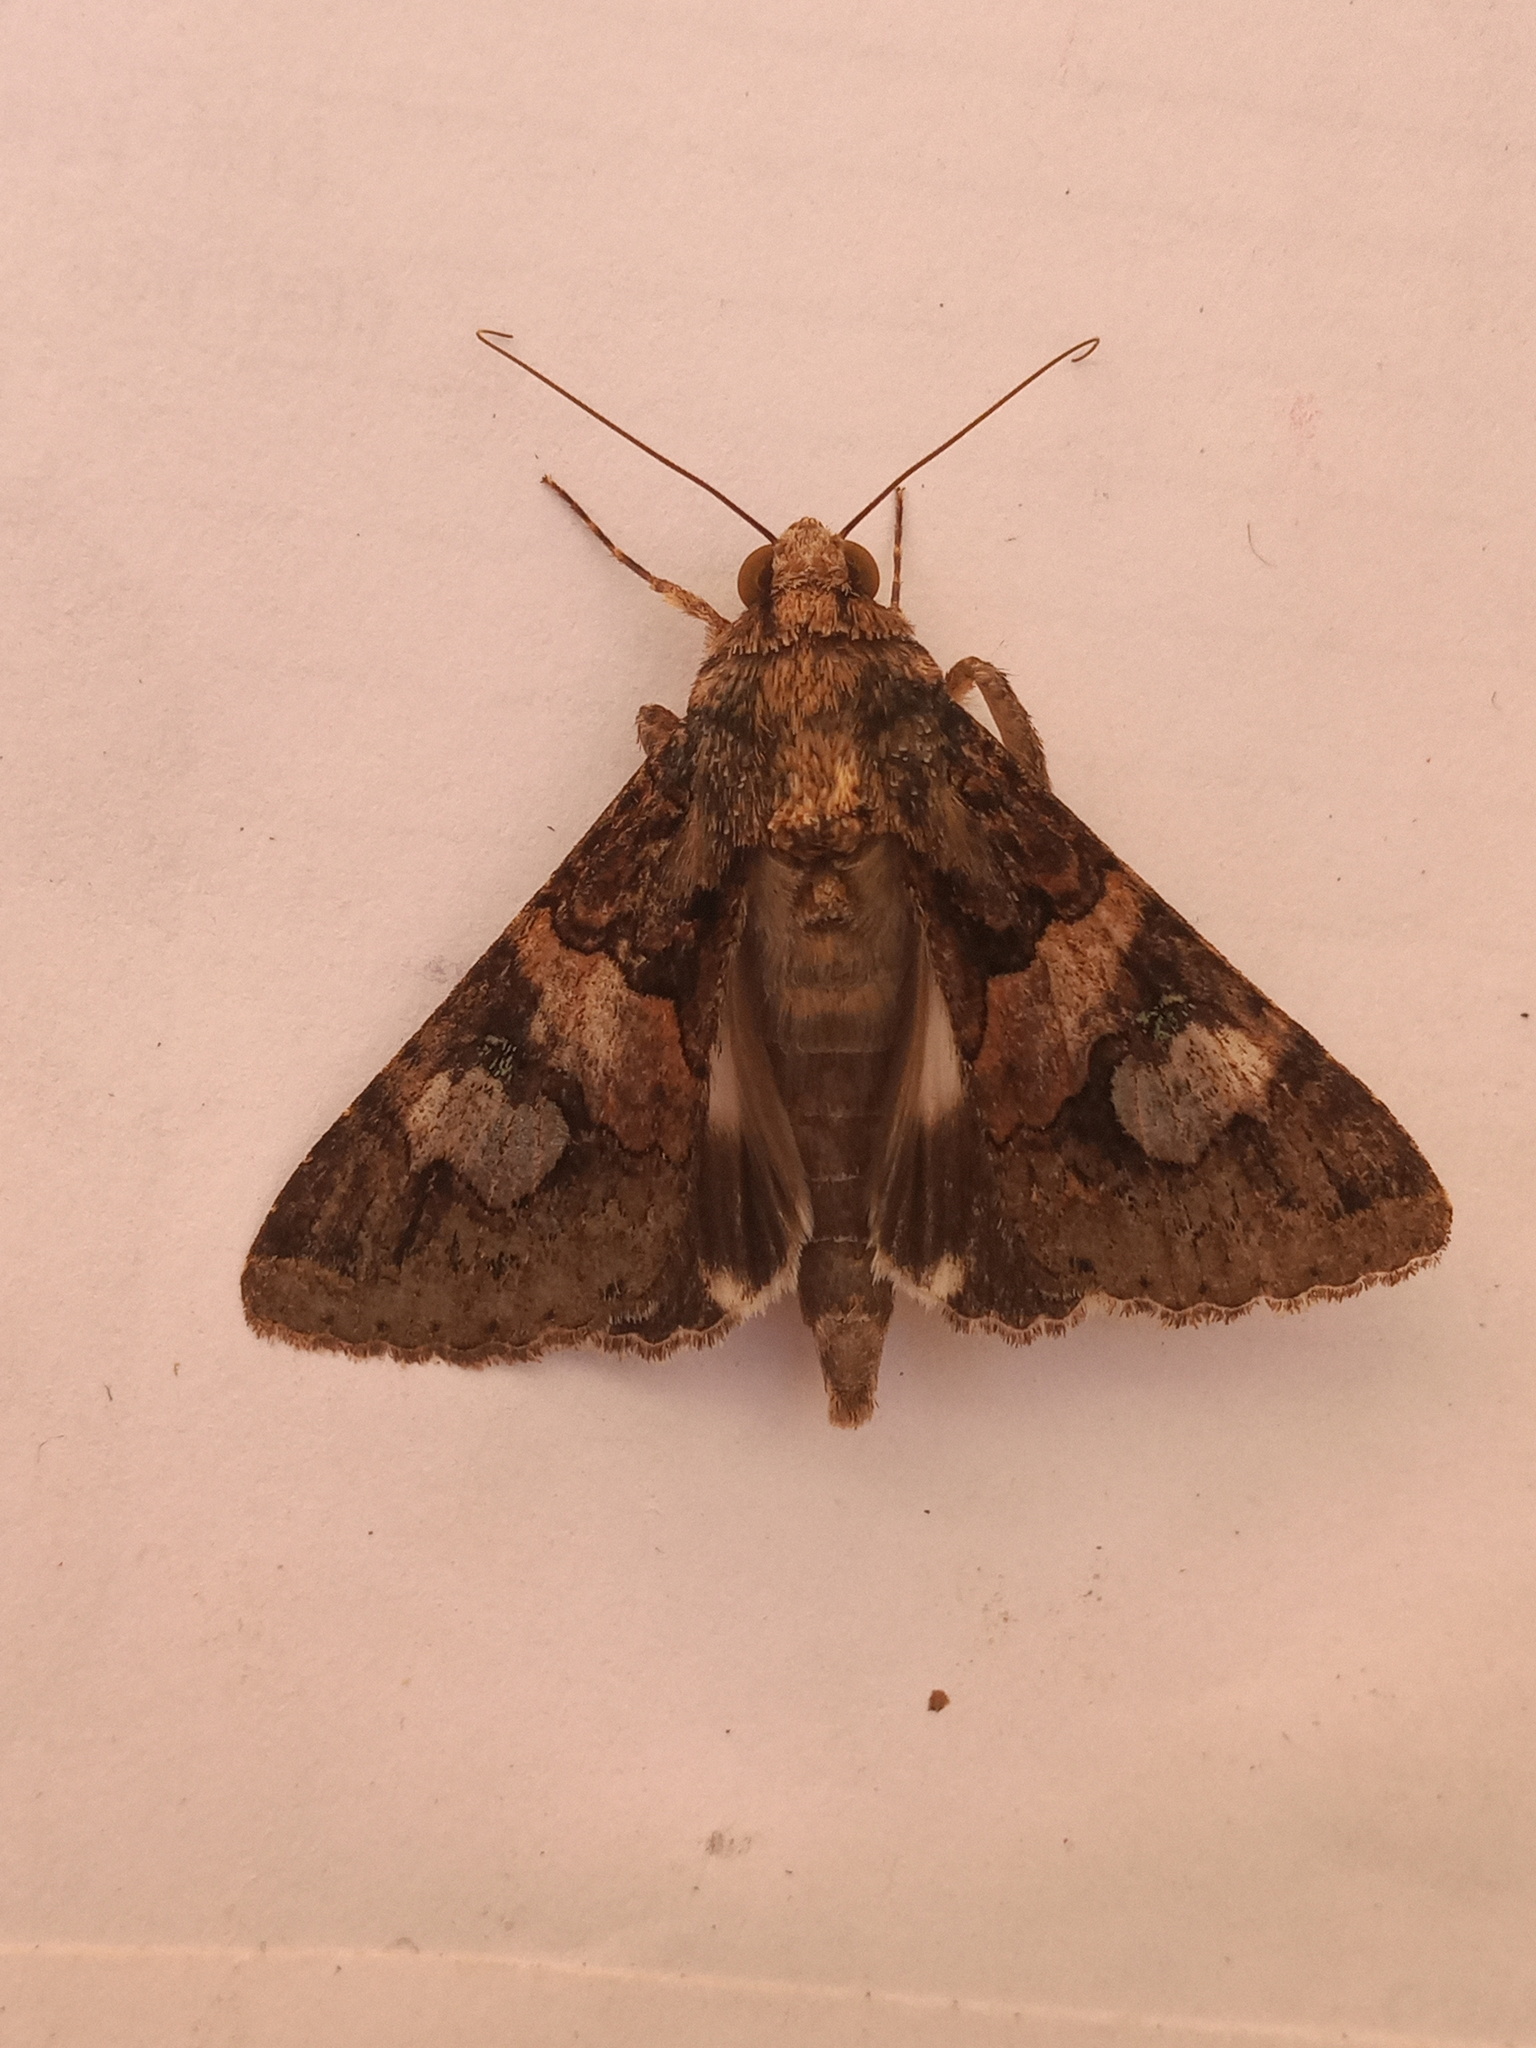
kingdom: Animalia
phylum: Arthropoda
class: Insecta
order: Lepidoptera
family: Erebidae
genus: Melipotis
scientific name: Melipotis famelica
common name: Famelica melipotis moth
